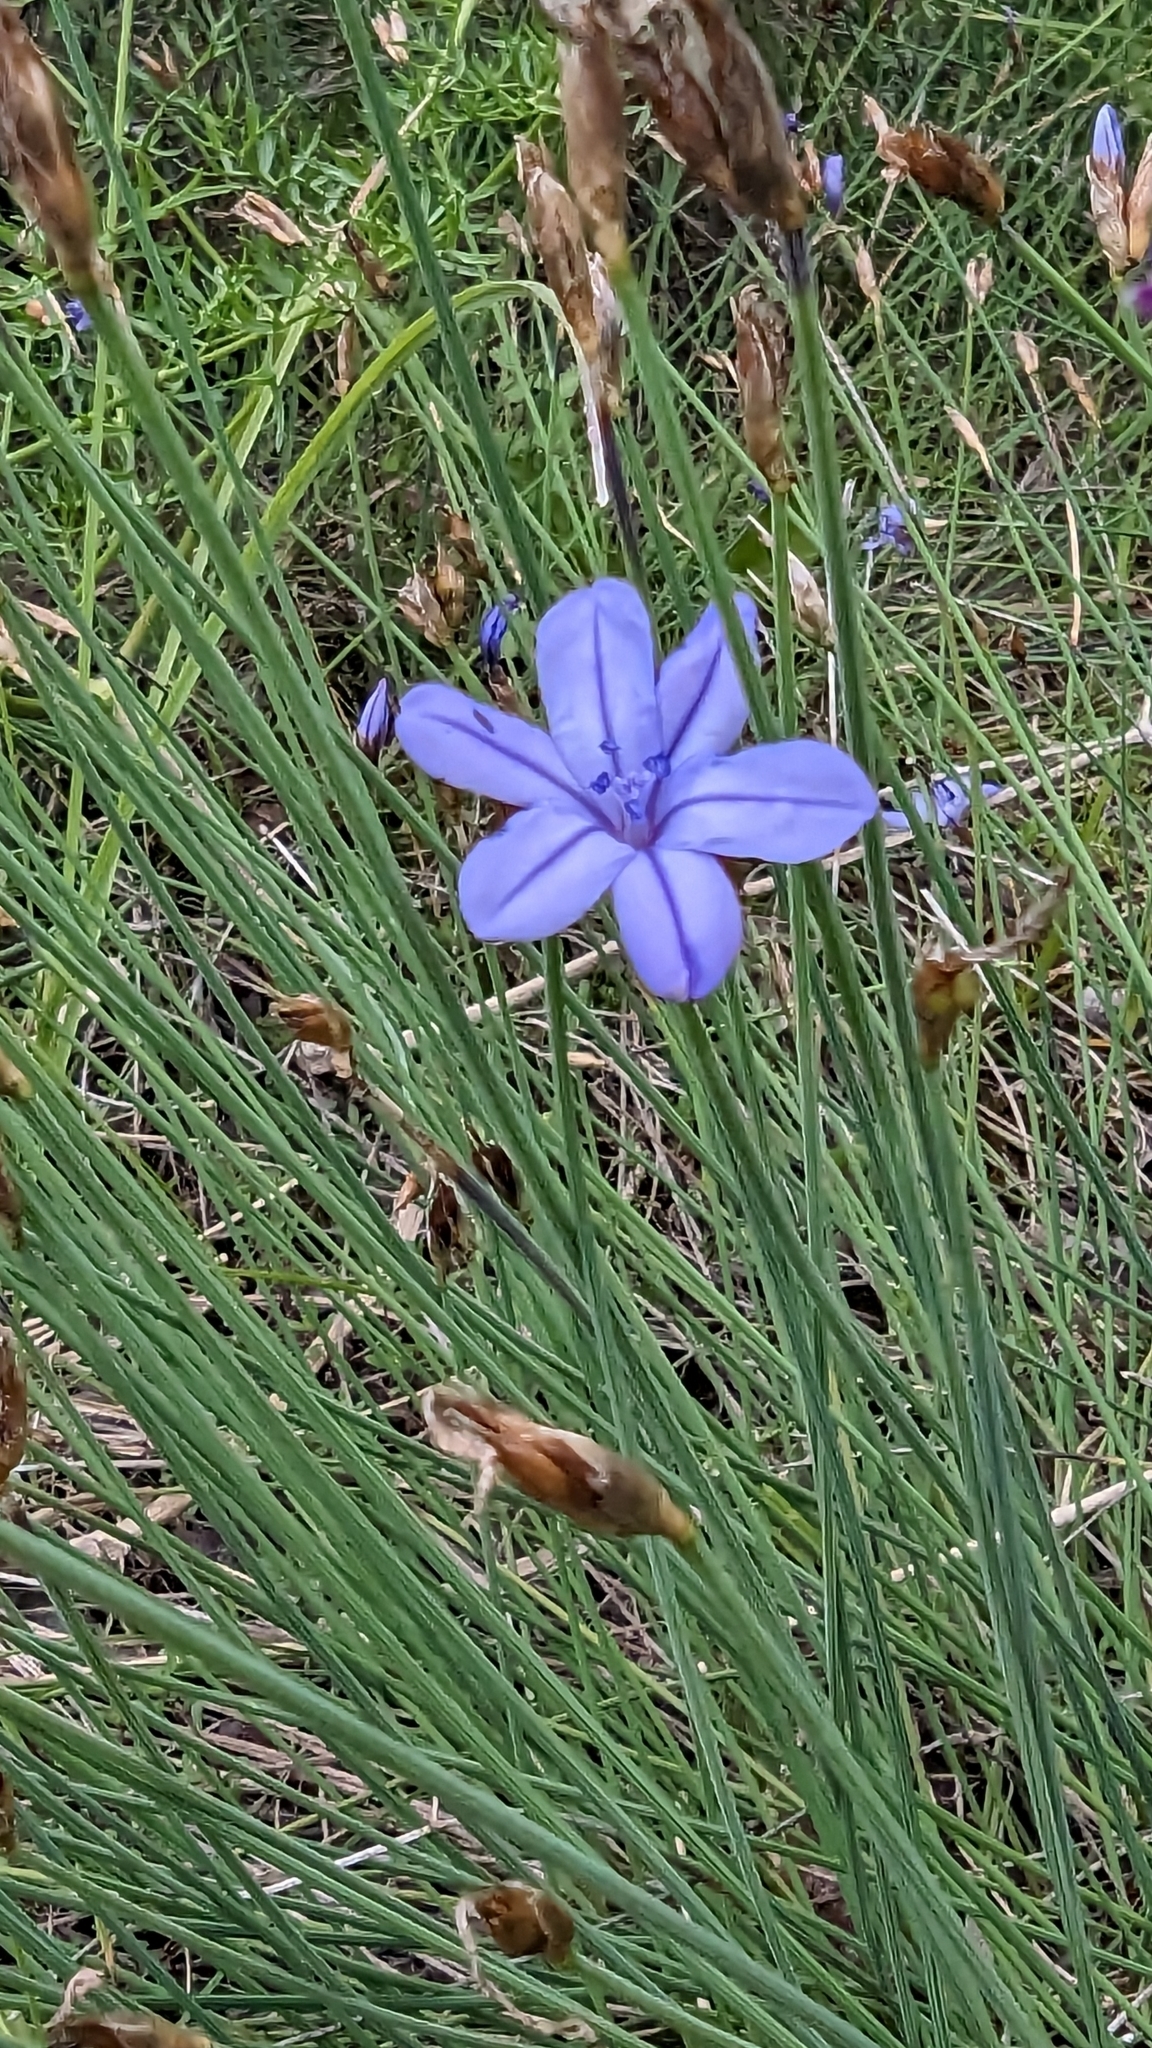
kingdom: Plantae
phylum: Tracheophyta
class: Liliopsida
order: Asparagales
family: Asparagaceae
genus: Aphyllanthes
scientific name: Aphyllanthes monspeliensis
